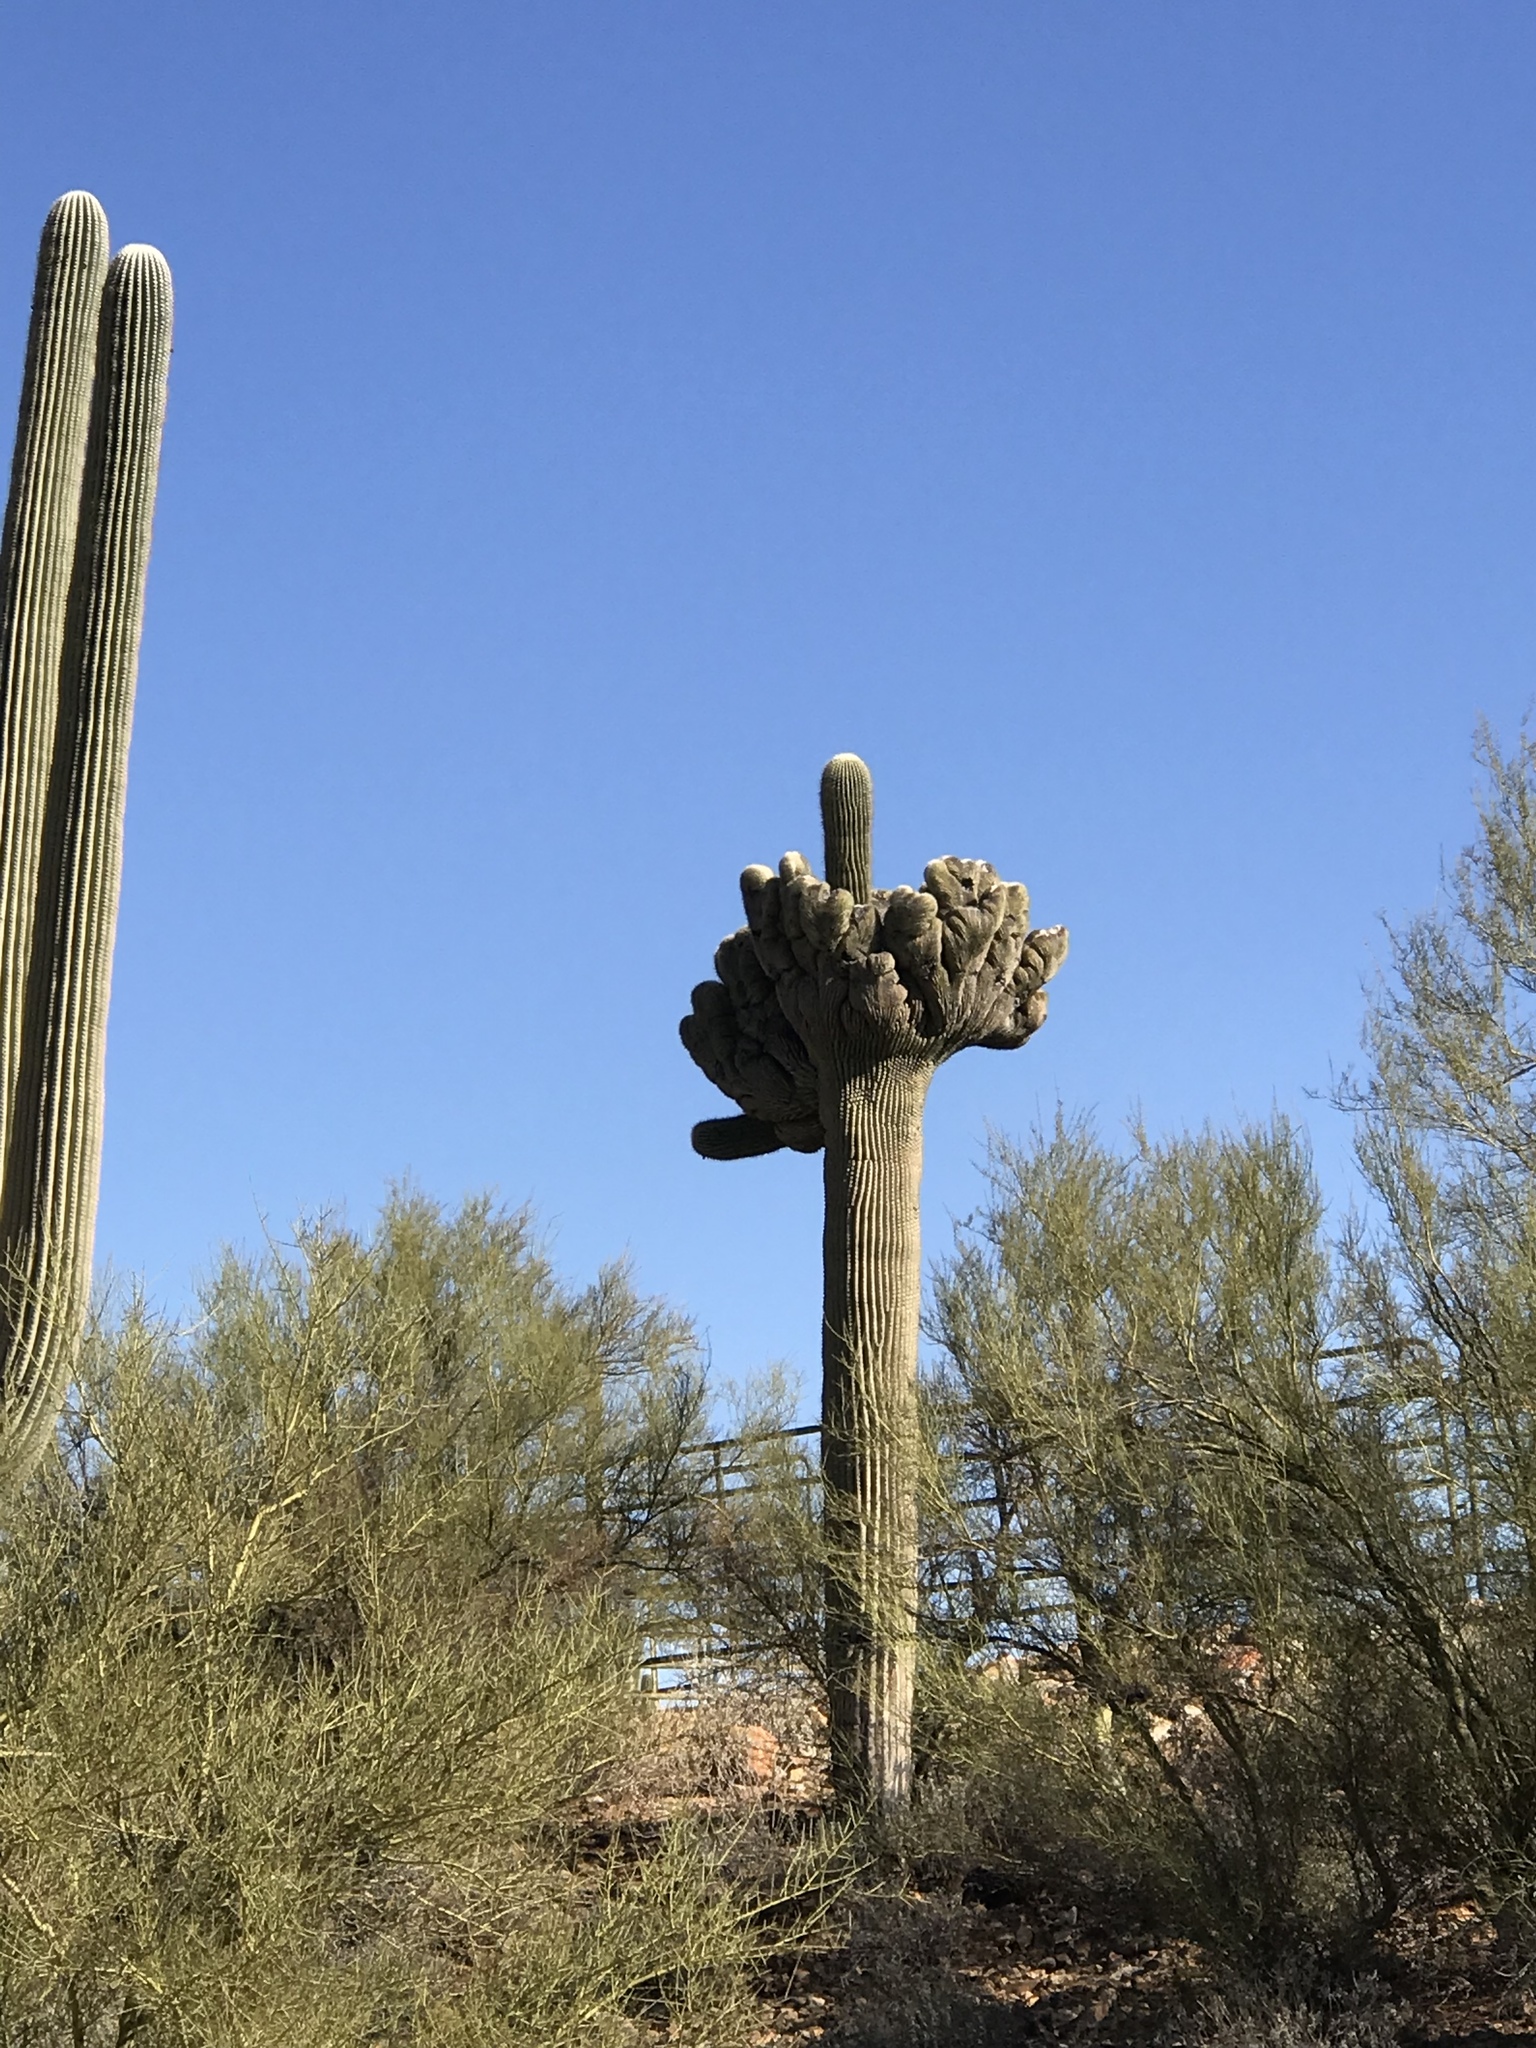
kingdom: Plantae
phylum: Tracheophyta
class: Magnoliopsida
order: Caryophyllales
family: Cactaceae
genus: Carnegiea
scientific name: Carnegiea gigantea
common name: Saguaro
